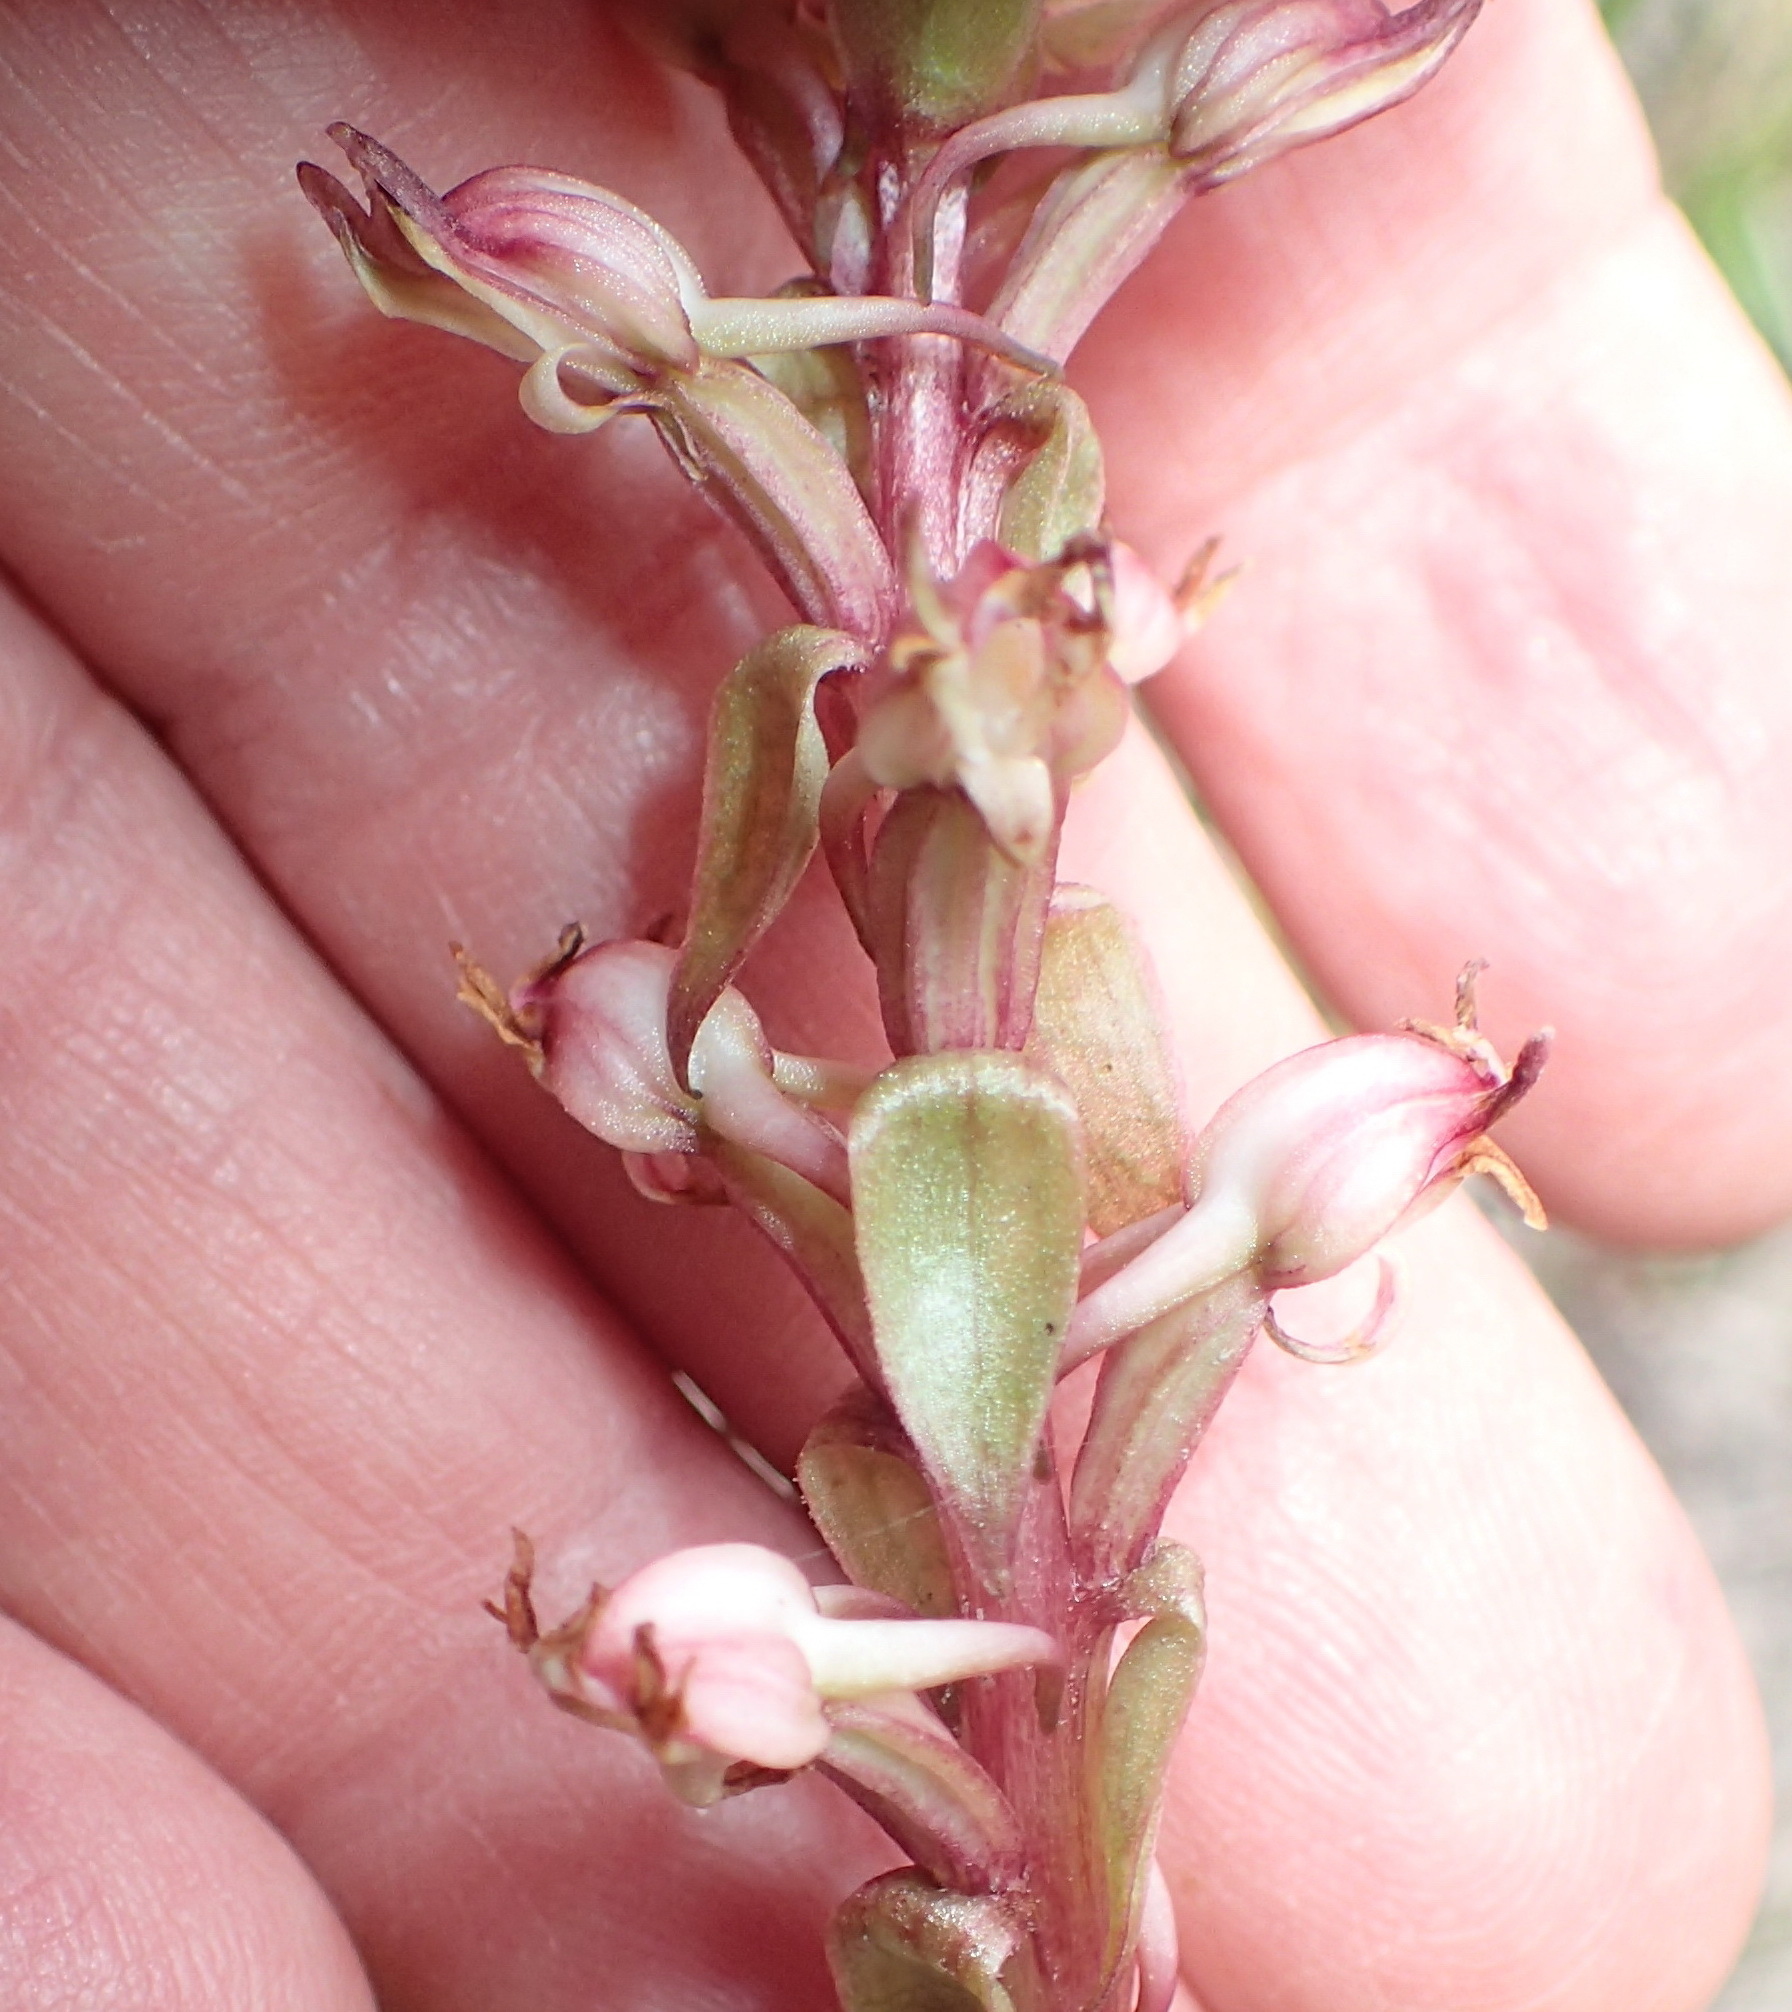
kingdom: Plantae
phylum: Tracheophyta
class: Liliopsida
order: Asparagales
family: Orchidaceae
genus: Satyrium
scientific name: Satyrium ligulatum
